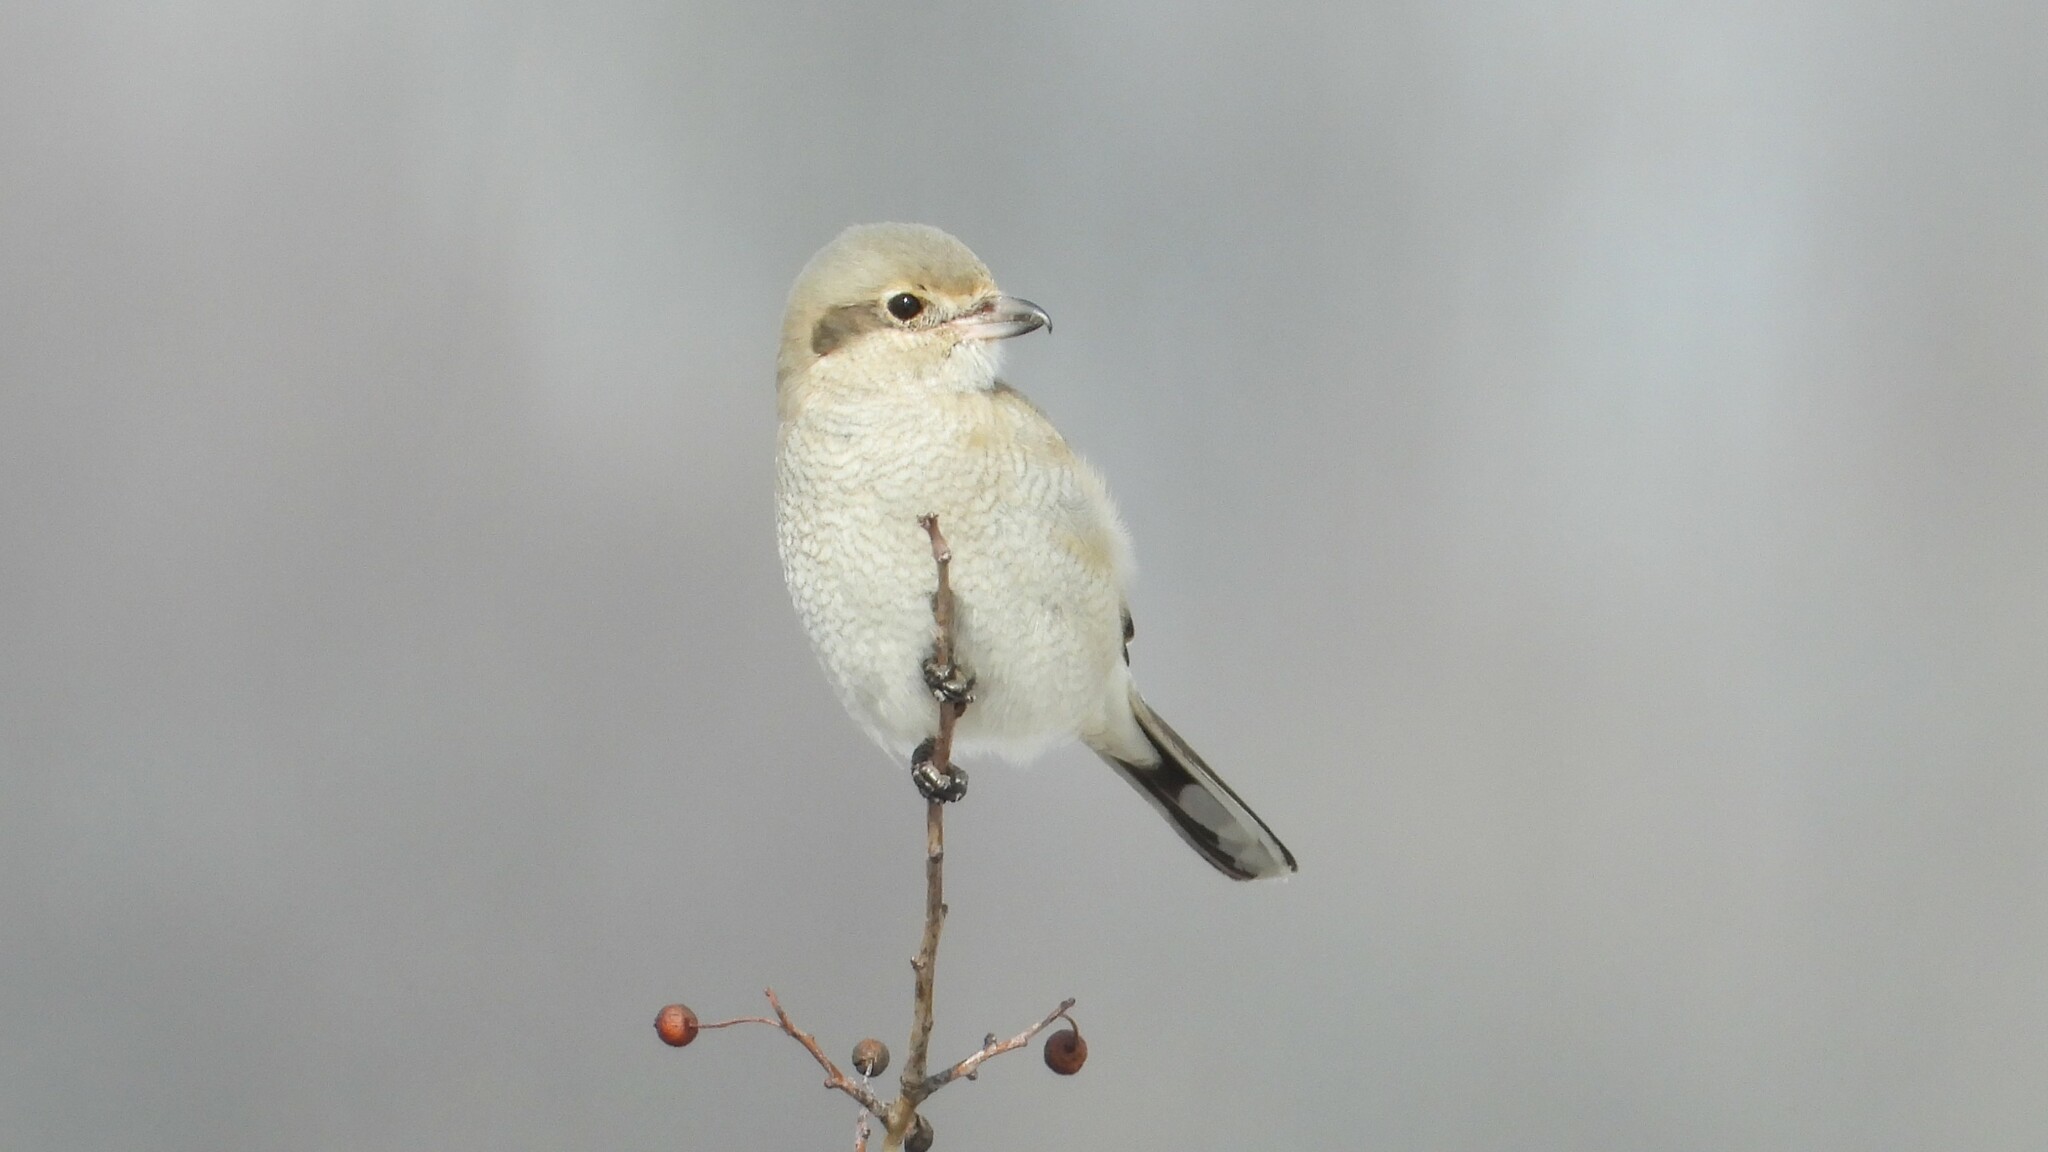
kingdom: Animalia
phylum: Chordata
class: Aves
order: Passeriformes
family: Laniidae
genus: Lanius
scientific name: Lanius borealis
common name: Northern shrike
